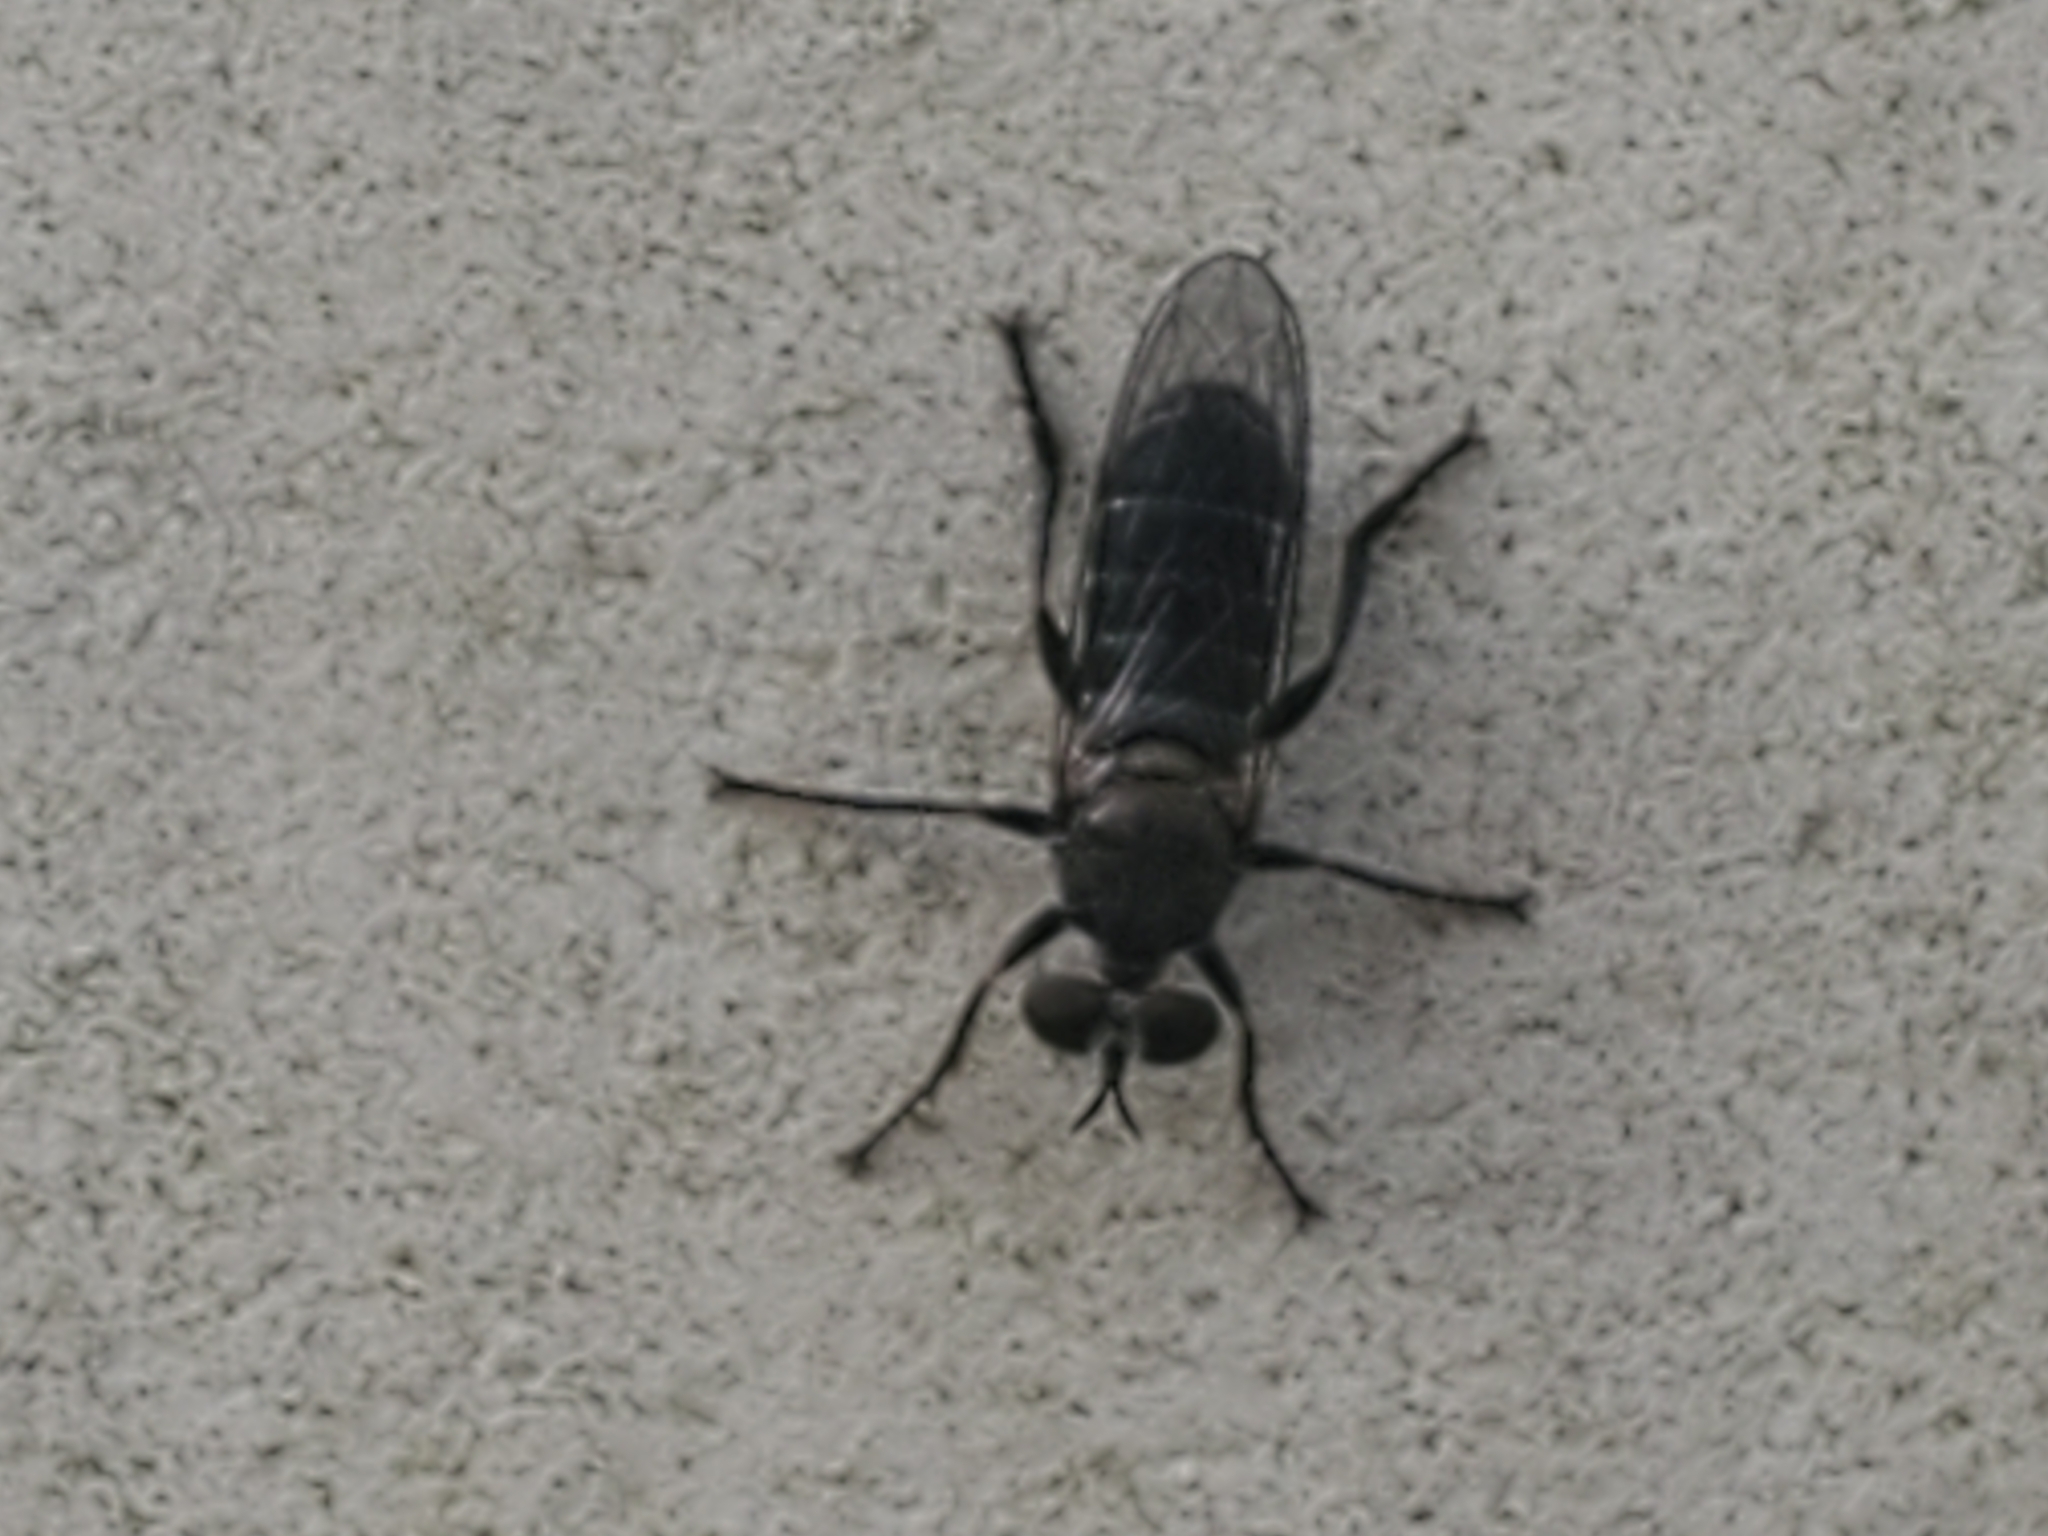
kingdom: Animalia
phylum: Arthropoda
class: Insecta
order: Diptera
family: Asilidae
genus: Atomosia
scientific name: Atomosia puella
